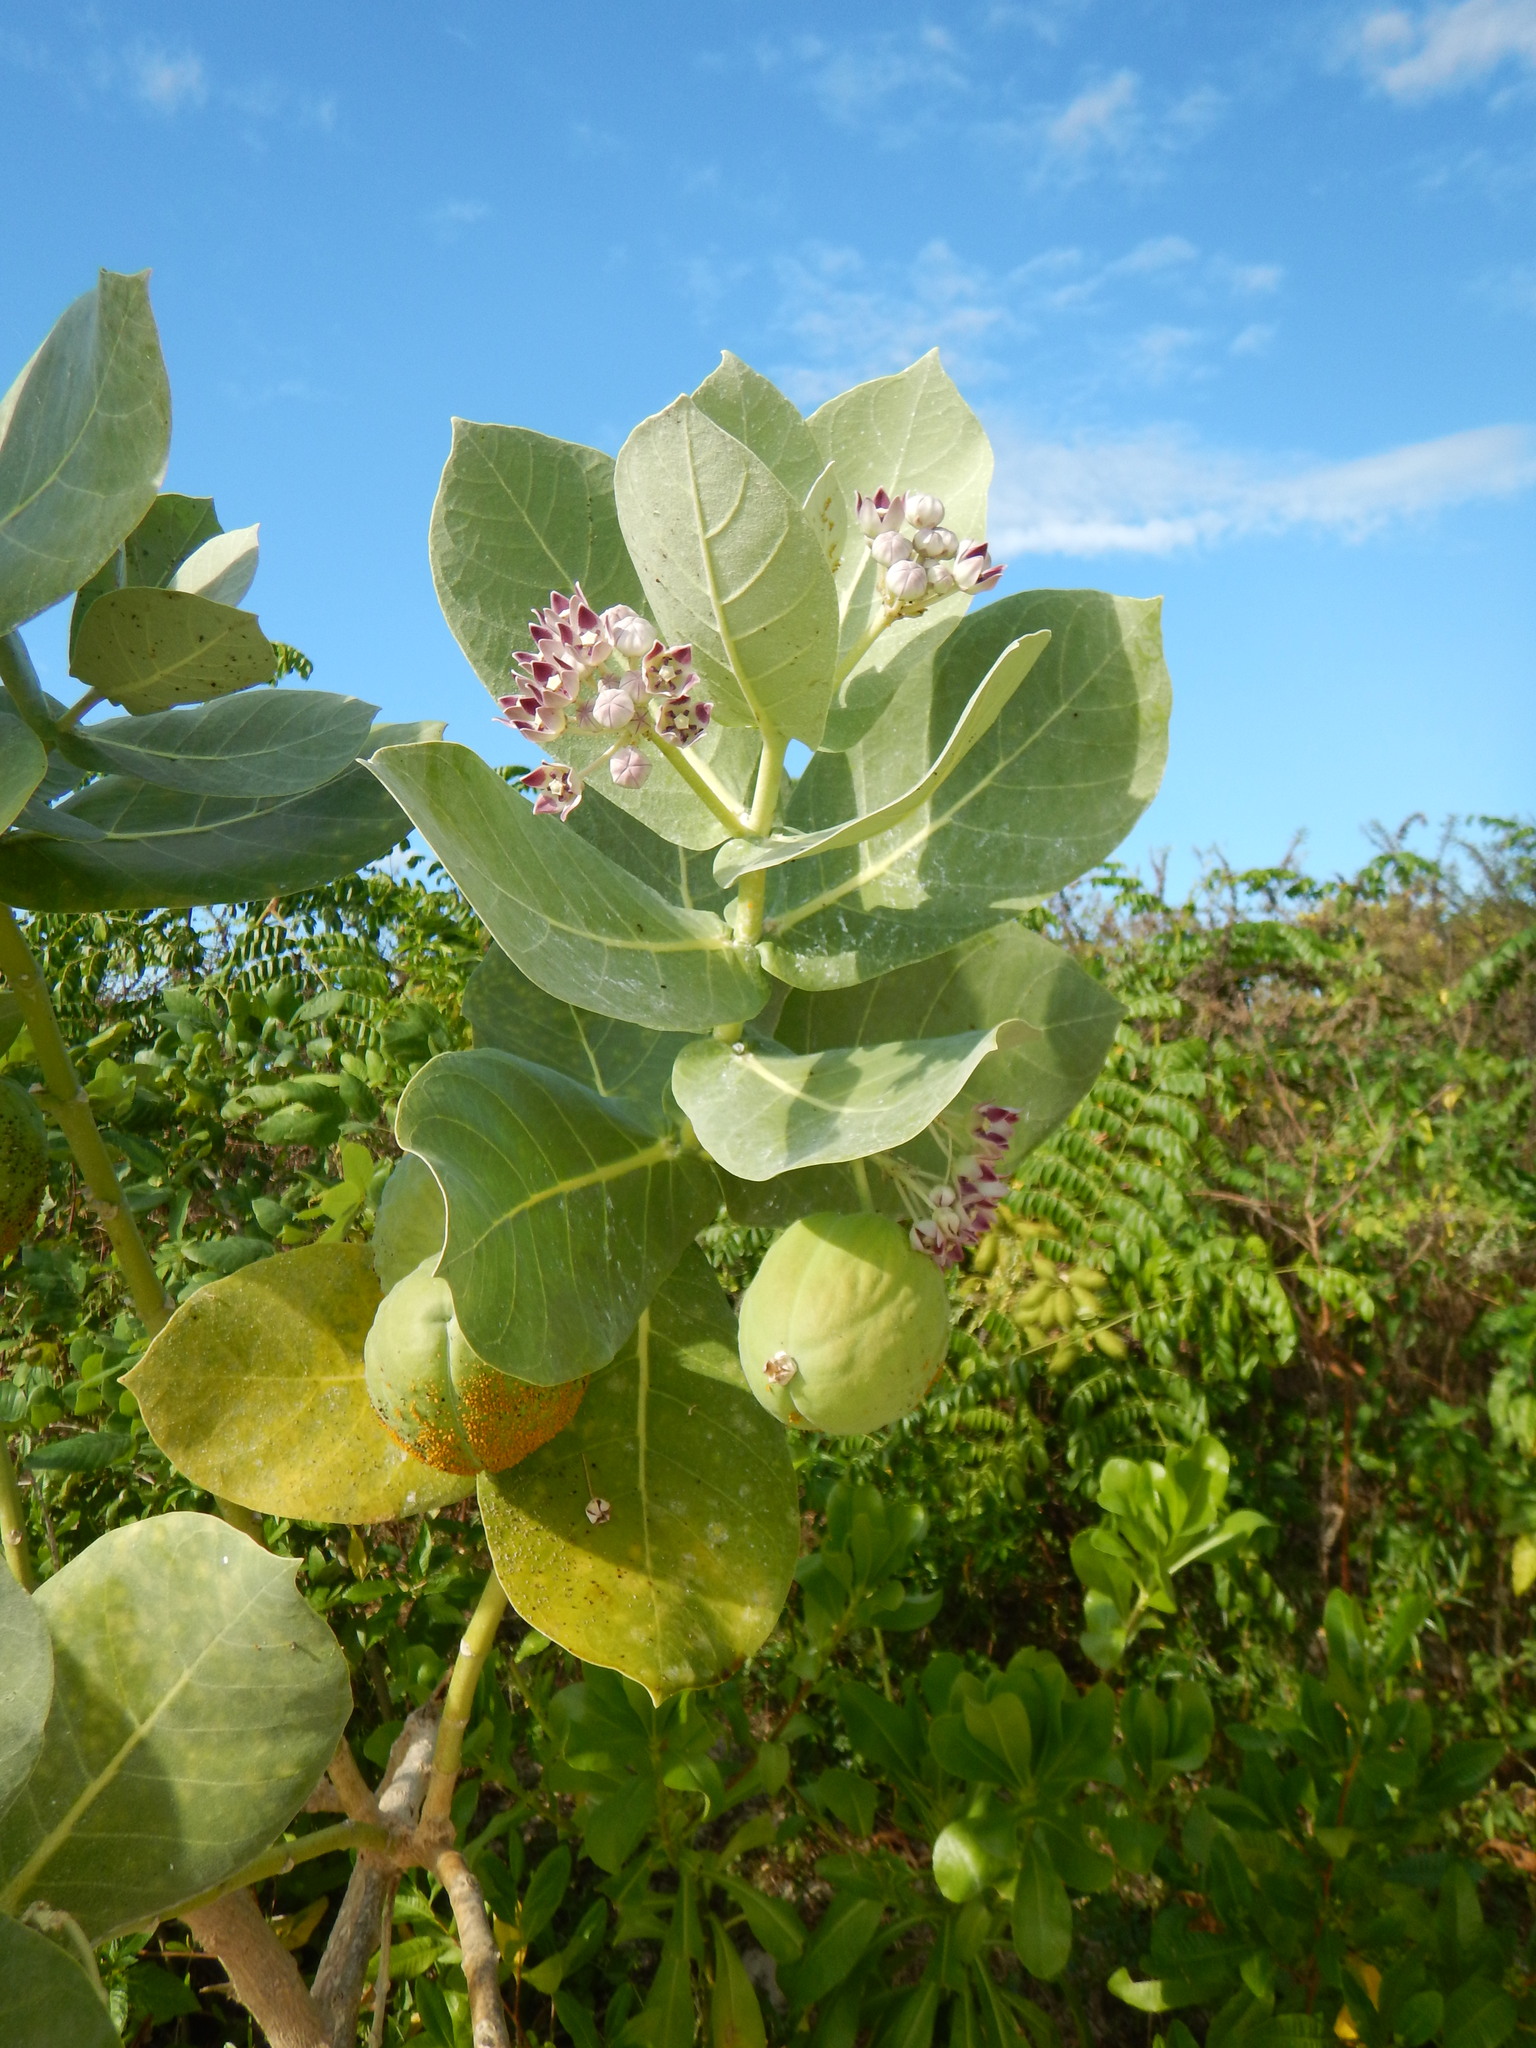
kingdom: Plantae
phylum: Tracheophyta
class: Magnoliopsida
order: Gentianales
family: Apocynaceae
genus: Calotropis
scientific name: Calotropis procera
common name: Roostertree
